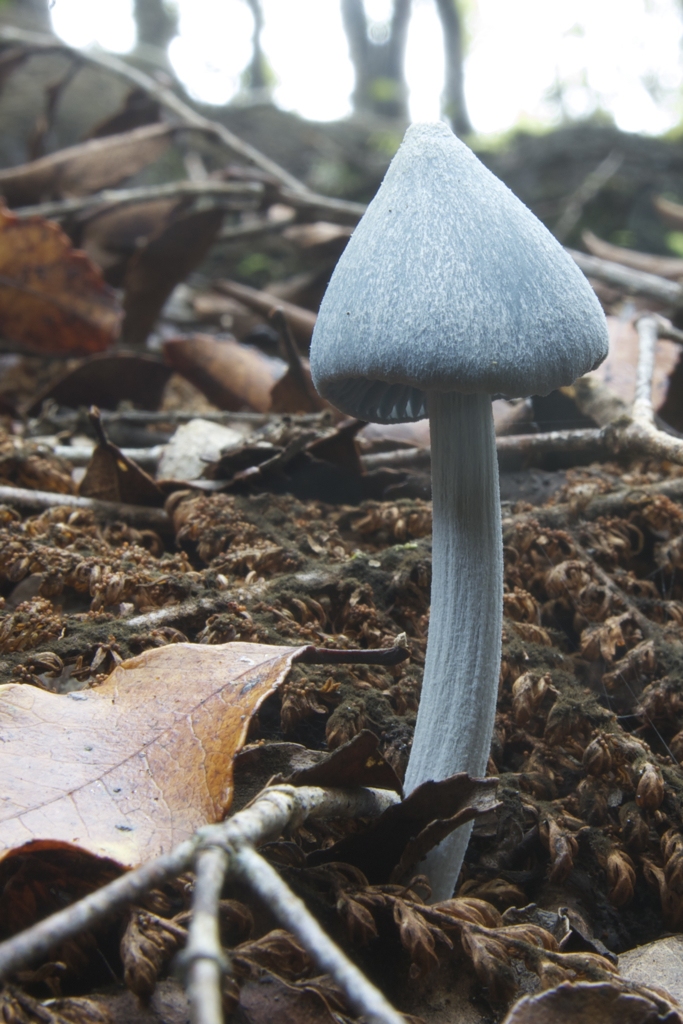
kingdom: Fungi
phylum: Basidiomycota
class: Agaricomycetes
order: Agaricales
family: Entolomataceae
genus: Entoloma
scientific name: Entoloma hochstetteri
